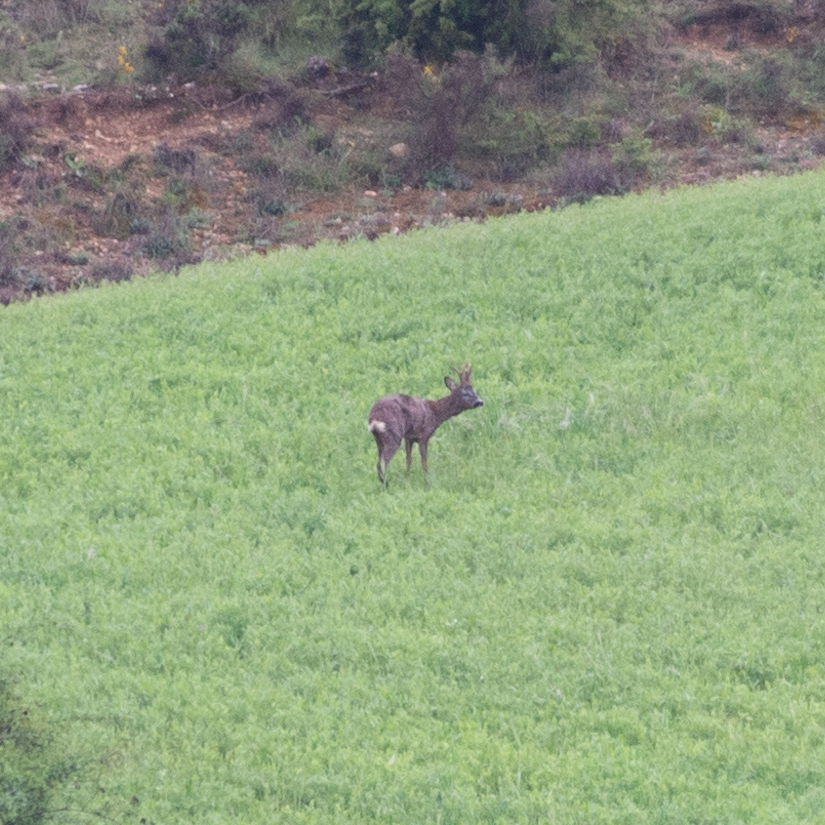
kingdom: Animalia
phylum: Chordata
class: Mammalia
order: Artiodactyla
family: Cervidae
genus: Capreolus
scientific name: Capreolus capreolus
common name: Western roe deer
